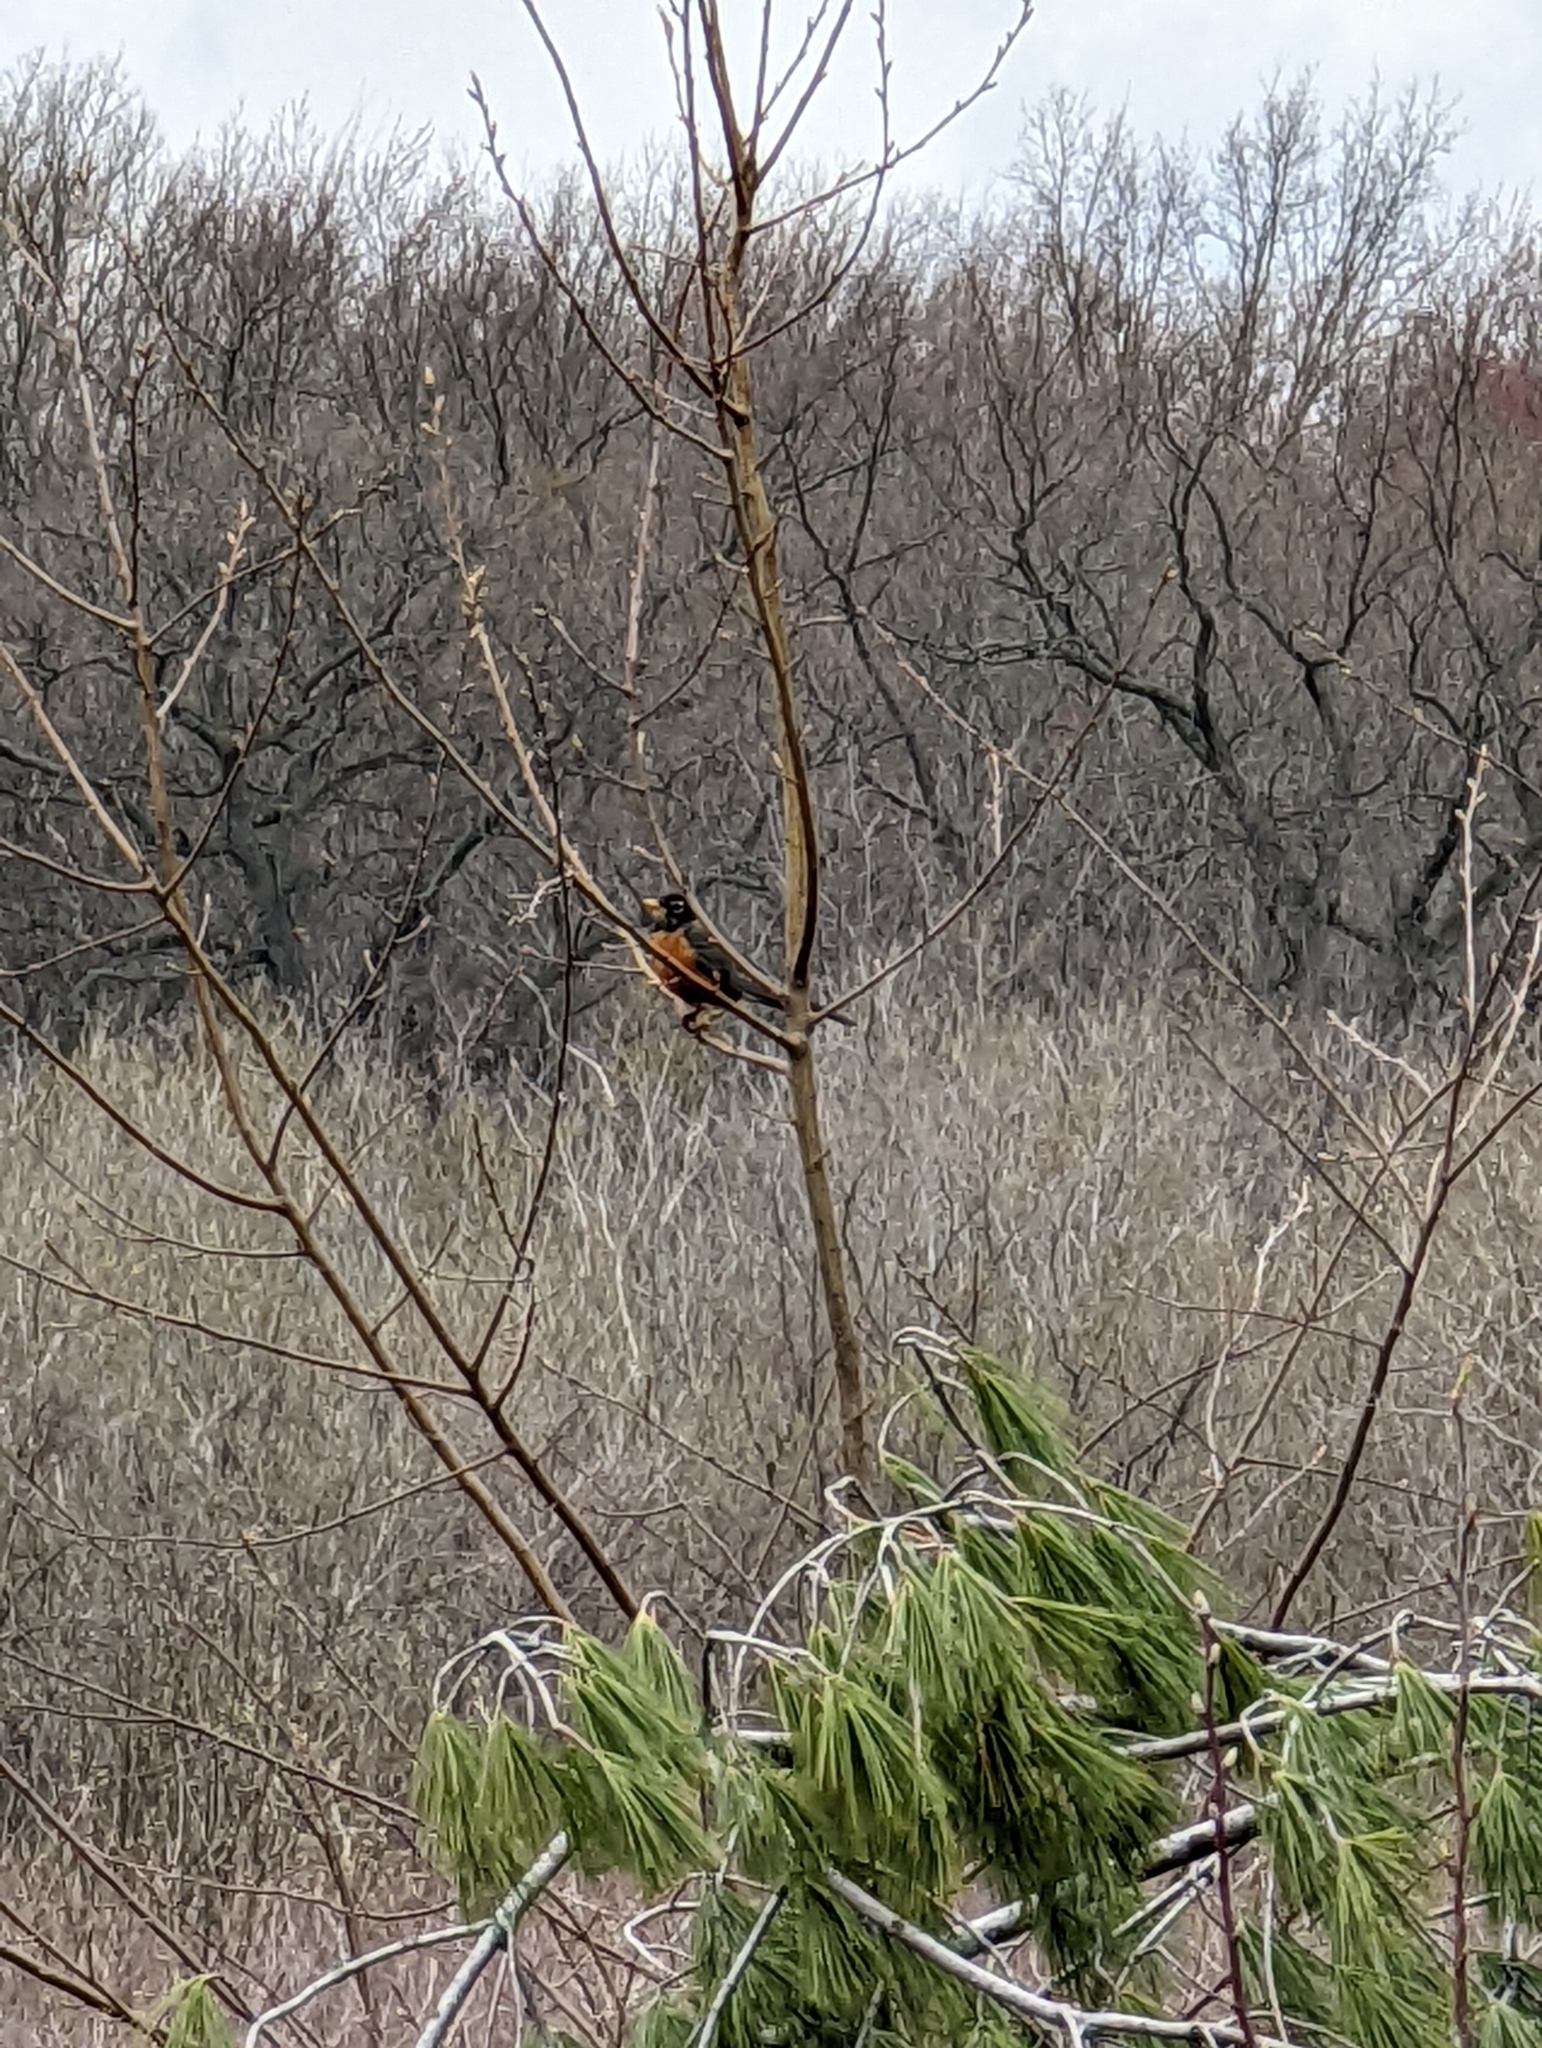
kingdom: Animalia
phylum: Chordata
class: Aves
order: Passeriformes
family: Turdidae
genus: Turdus
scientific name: Turdus migratorius
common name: American robin
